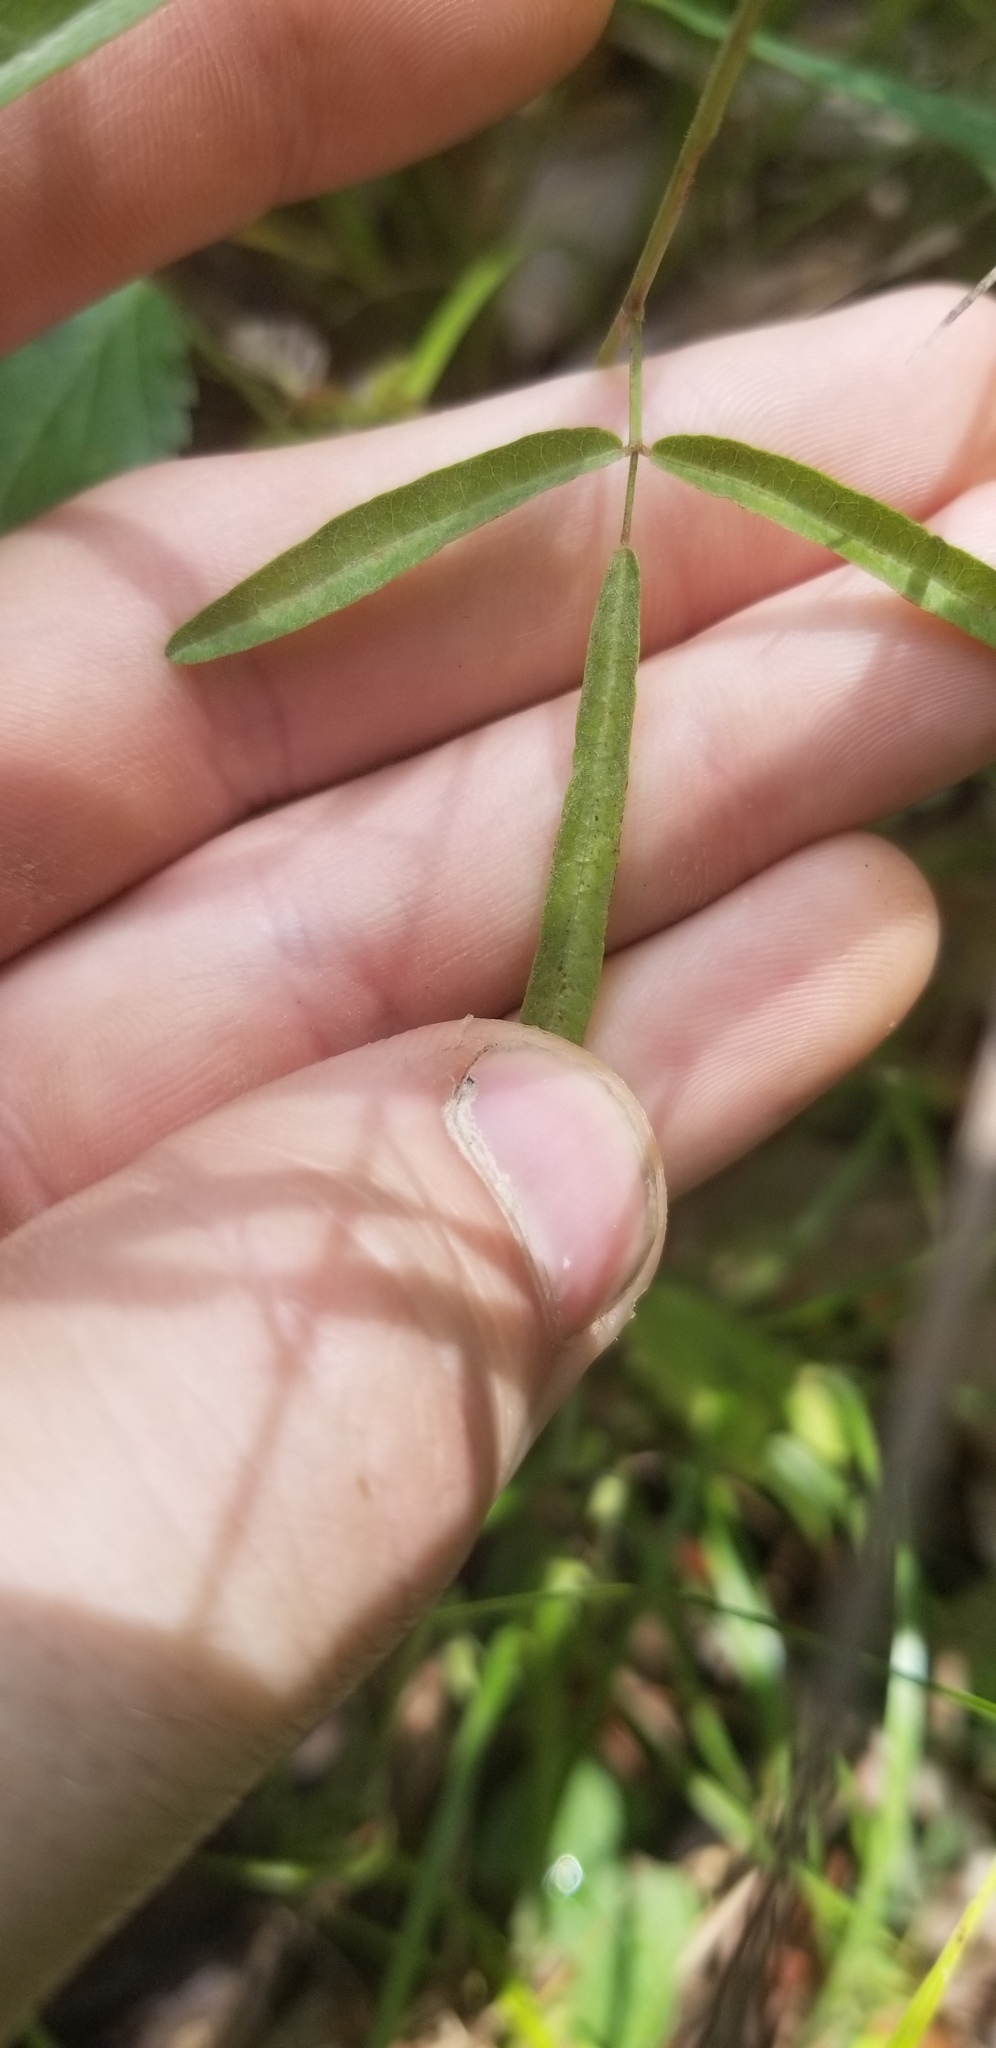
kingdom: Plantae
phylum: Tracheophyta
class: Magnoliopsida
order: Fabales
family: Fabaceae
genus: Desmodium
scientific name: Desmodium tenuifolium
